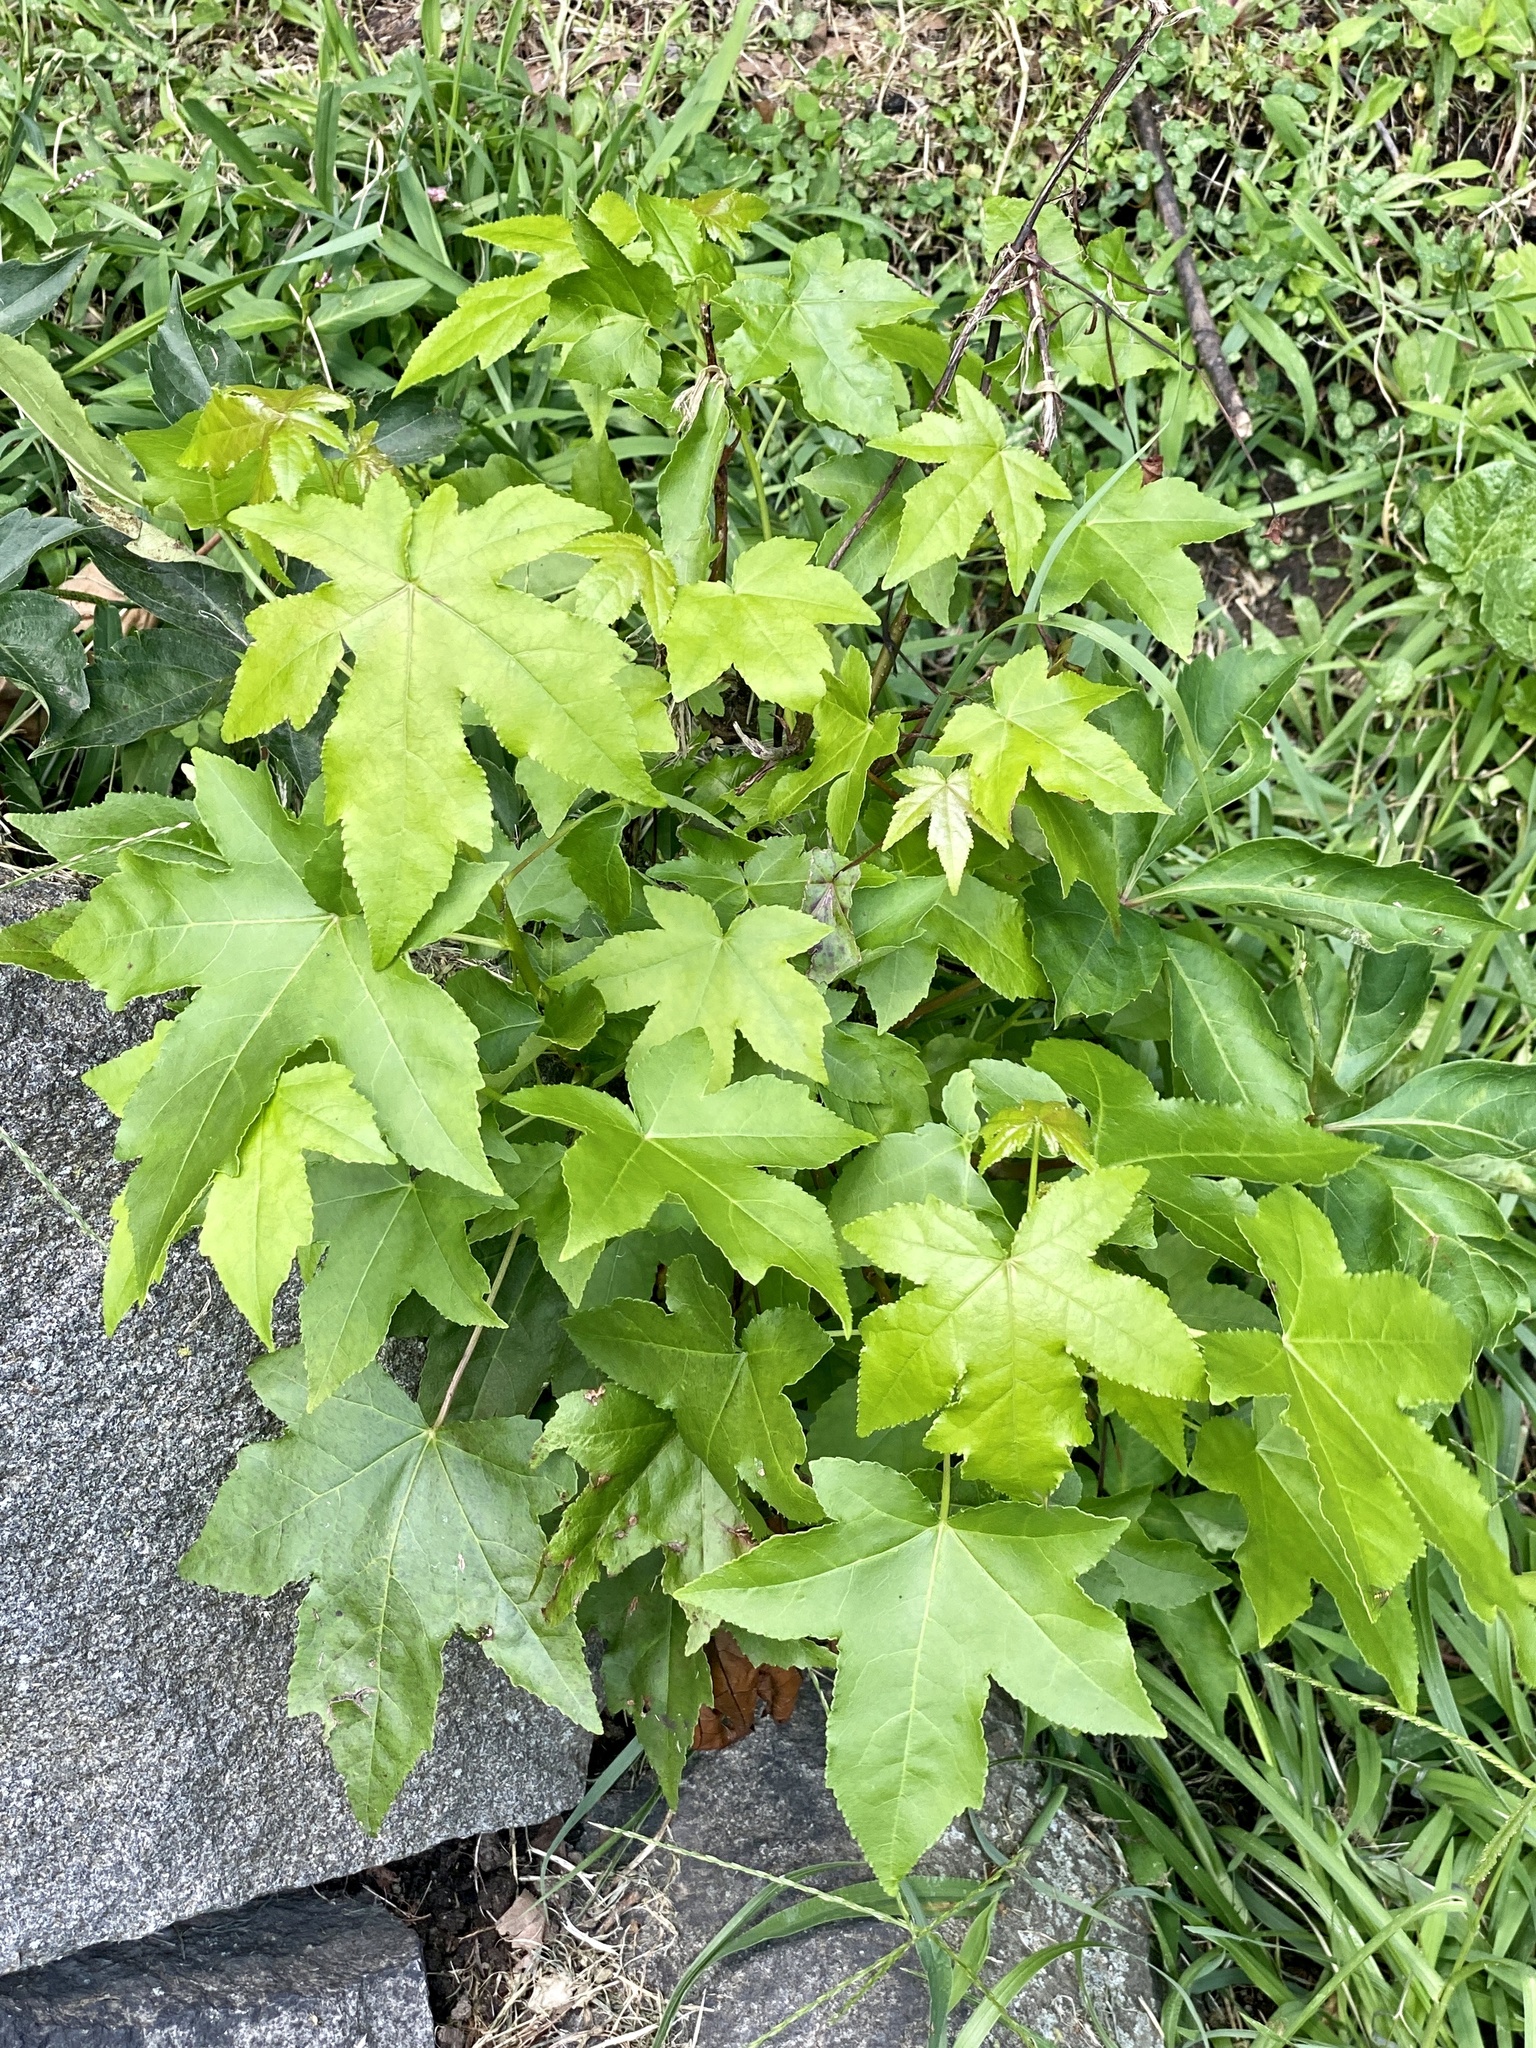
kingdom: Plantae
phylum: Tracheophyta
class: Magnoliopsida
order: Saxifragales
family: Altingiaceae
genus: Liquidambar
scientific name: Liquidambar styraciflua
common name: Sweet gum
